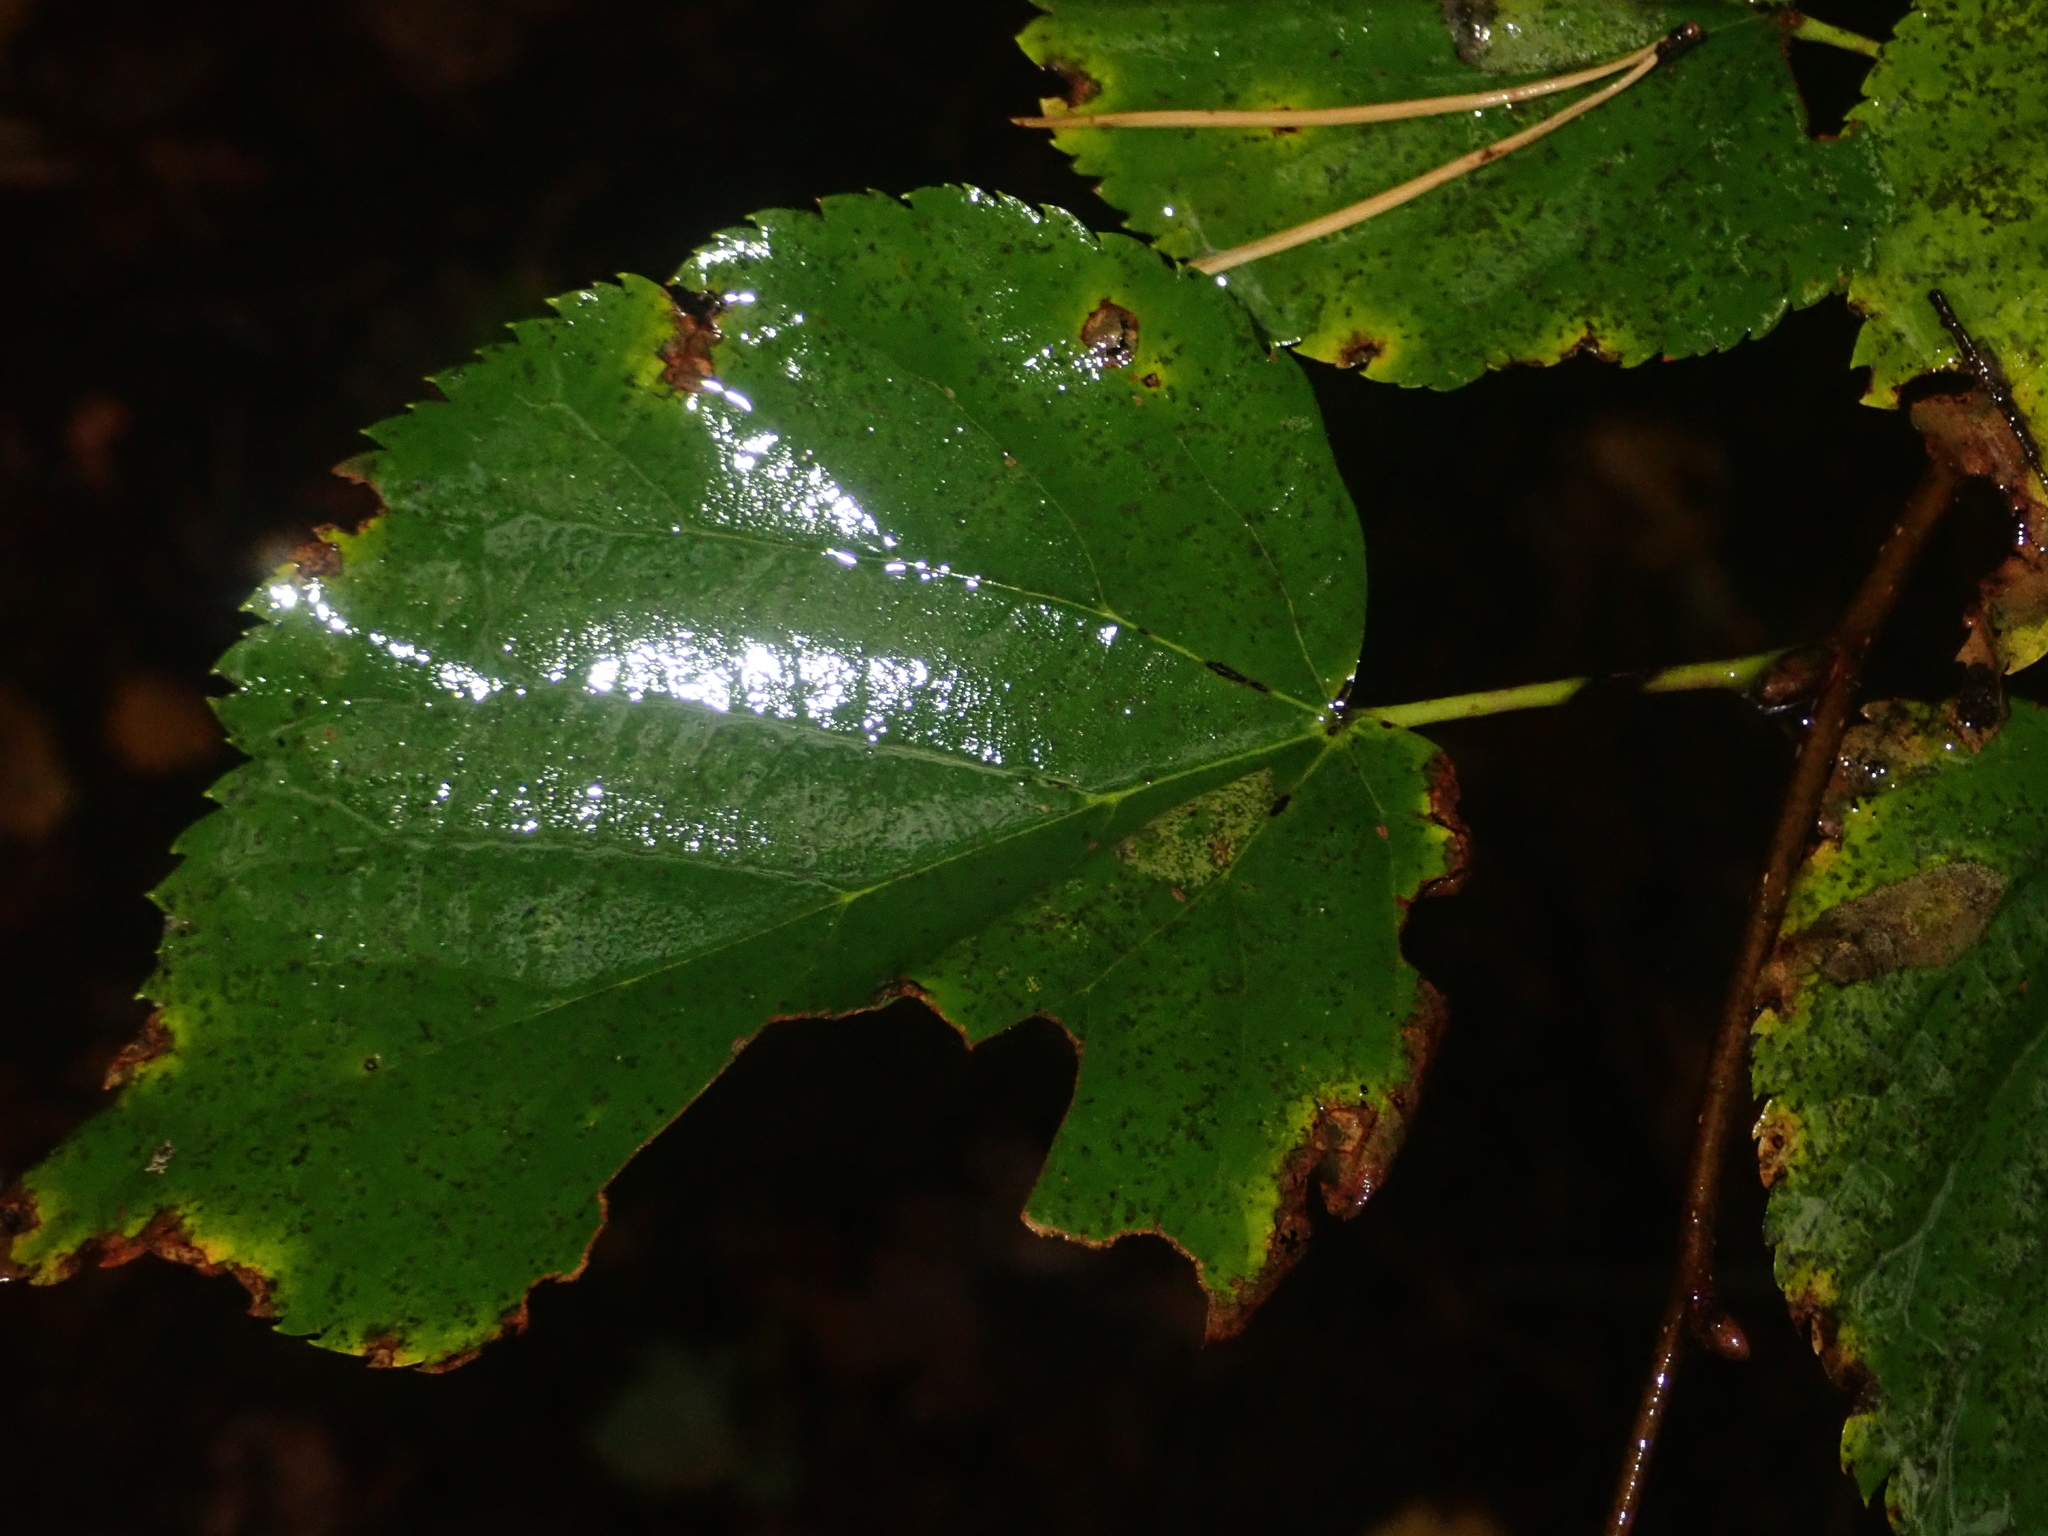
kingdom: Plantae
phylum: Tracheophyta
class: Magnoliopsida
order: Malvales
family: Malvaceae
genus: Tilia
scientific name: Tilia cordata
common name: Small-leaved lime
